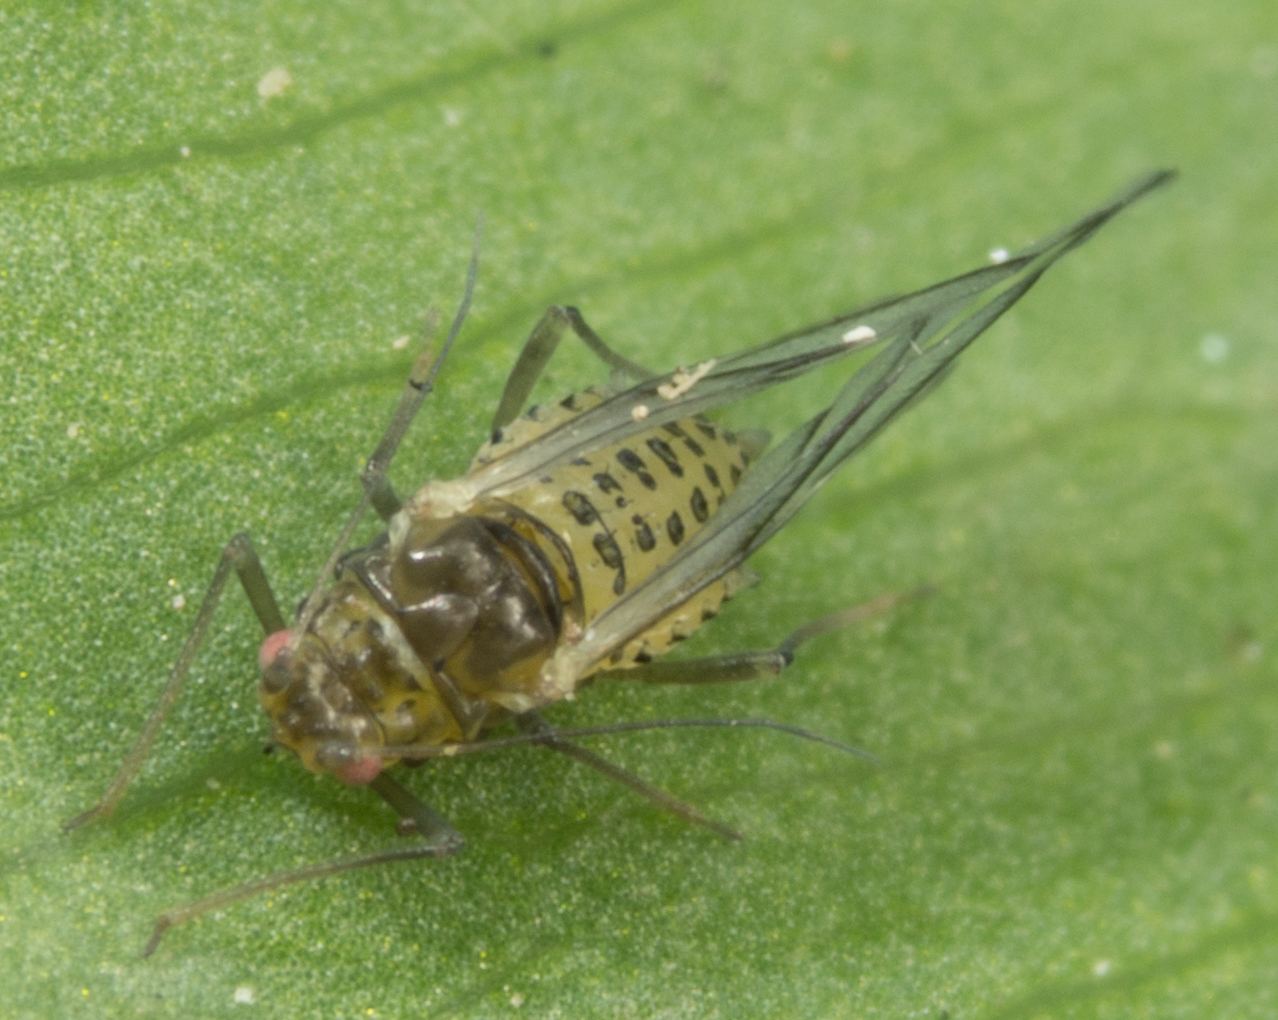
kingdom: Animalia
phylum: Arthropoda
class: Insecta
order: Hemiptera
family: Aphididae
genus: Therioaphis
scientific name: Therioaphis trifolii
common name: Spotted alfalfa aphid
